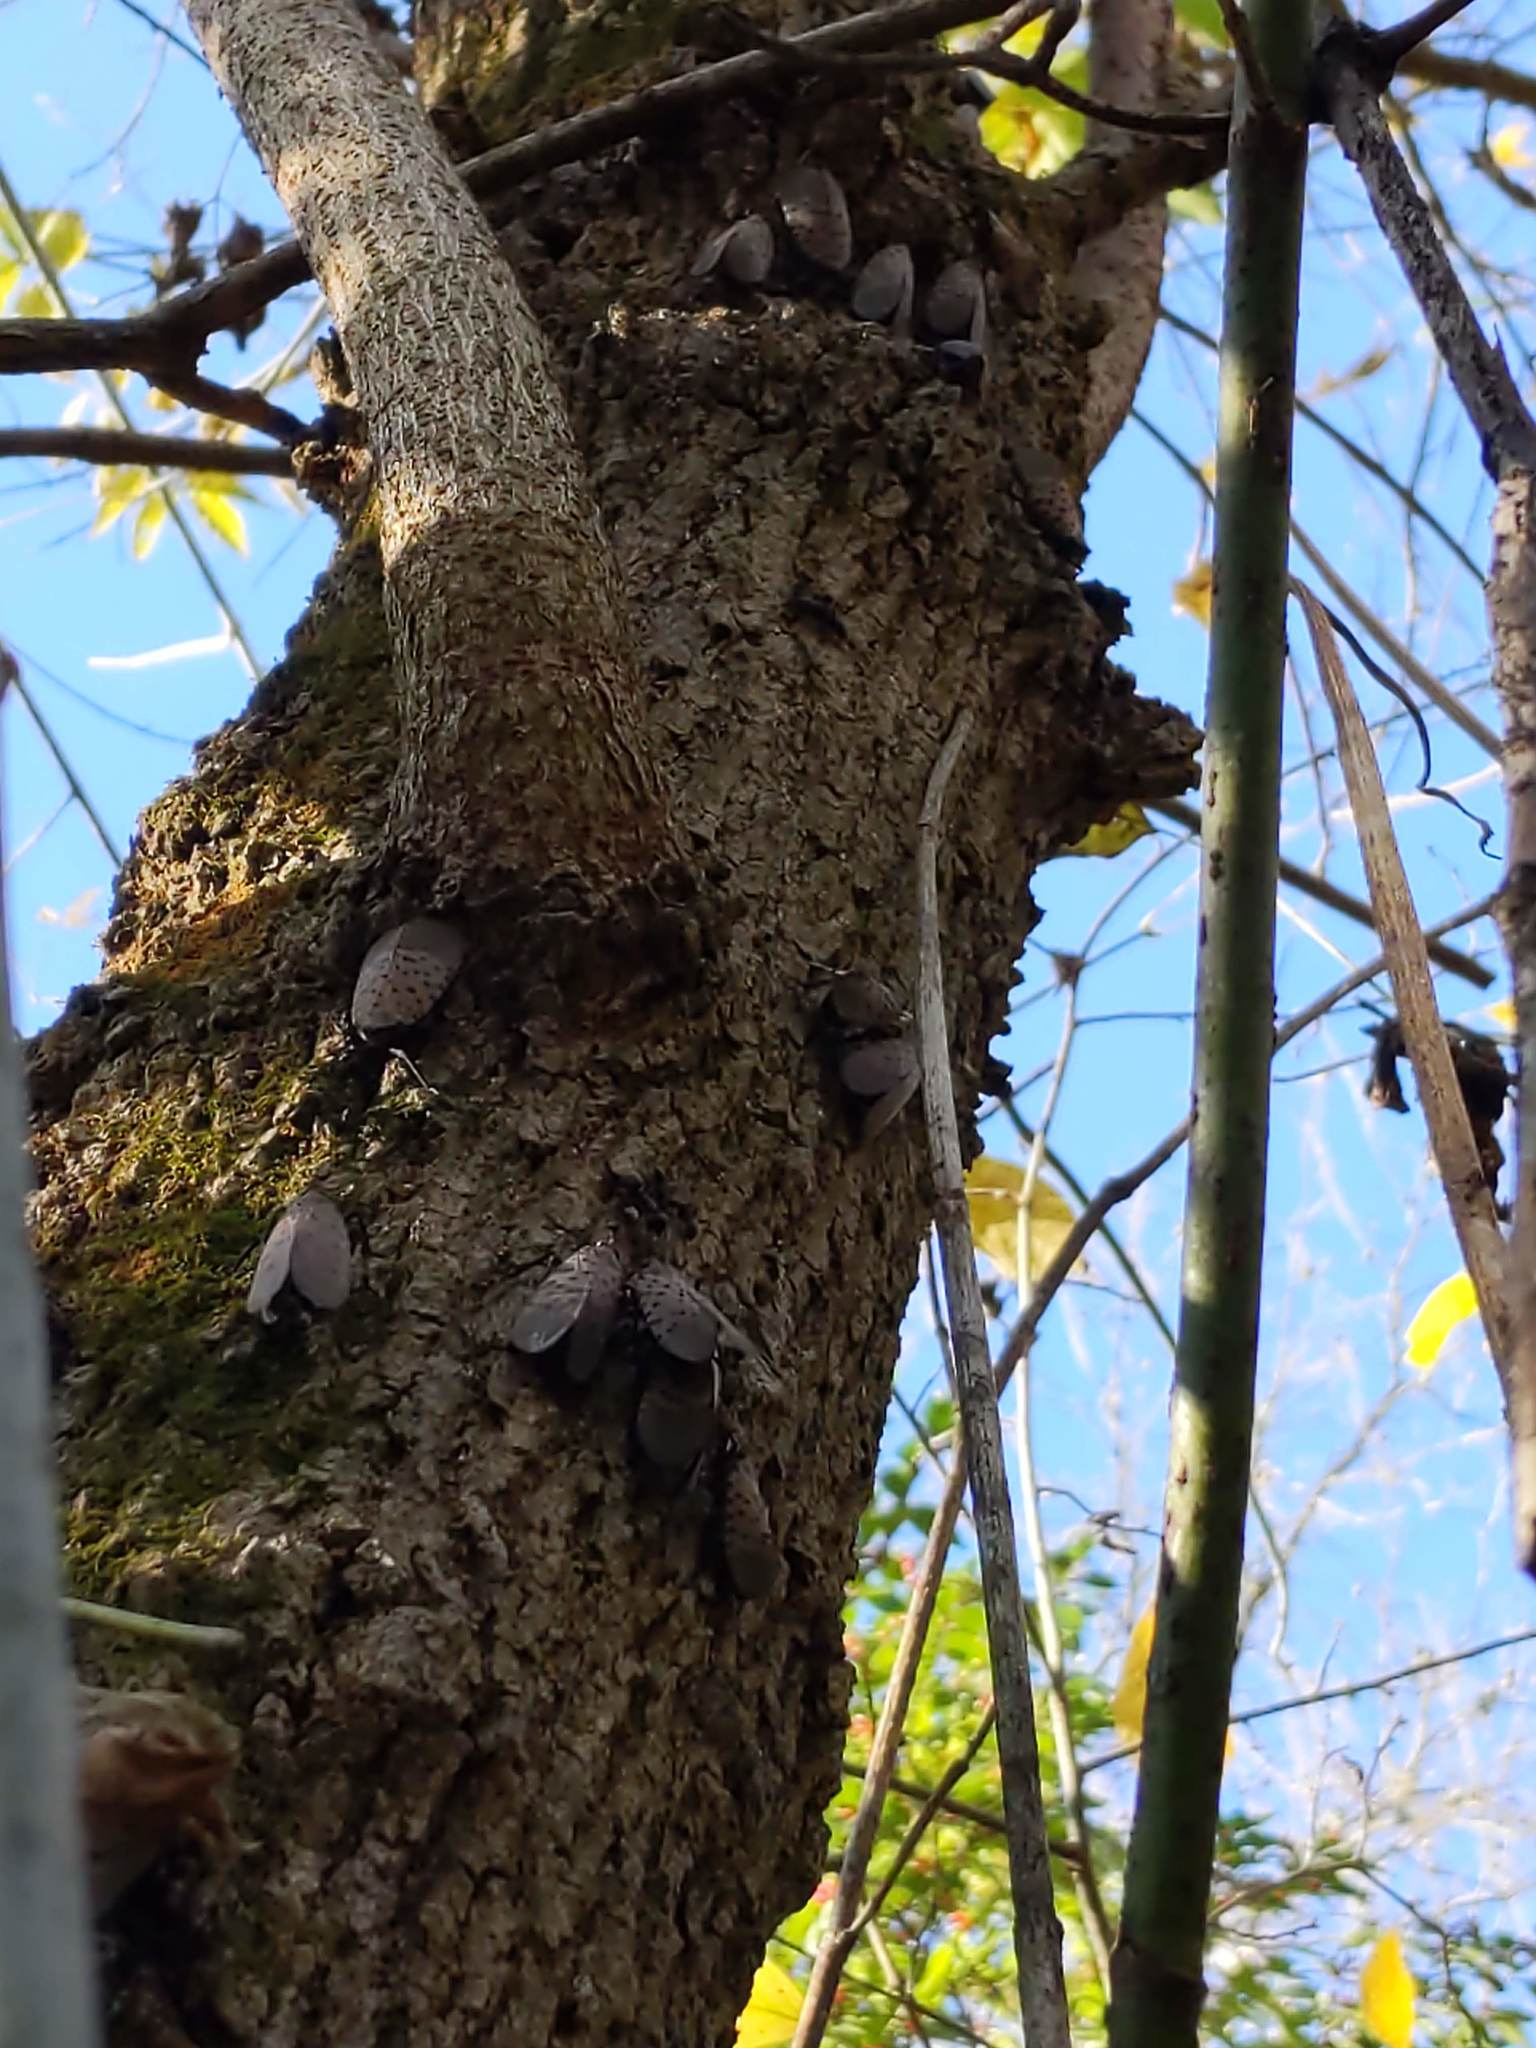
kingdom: Animalia
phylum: Arthropoda
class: Insecta
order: Hemiptera
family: Fulgoridae
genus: Lycorma
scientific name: Lycorma delicatula
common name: Spotted lanternfly
